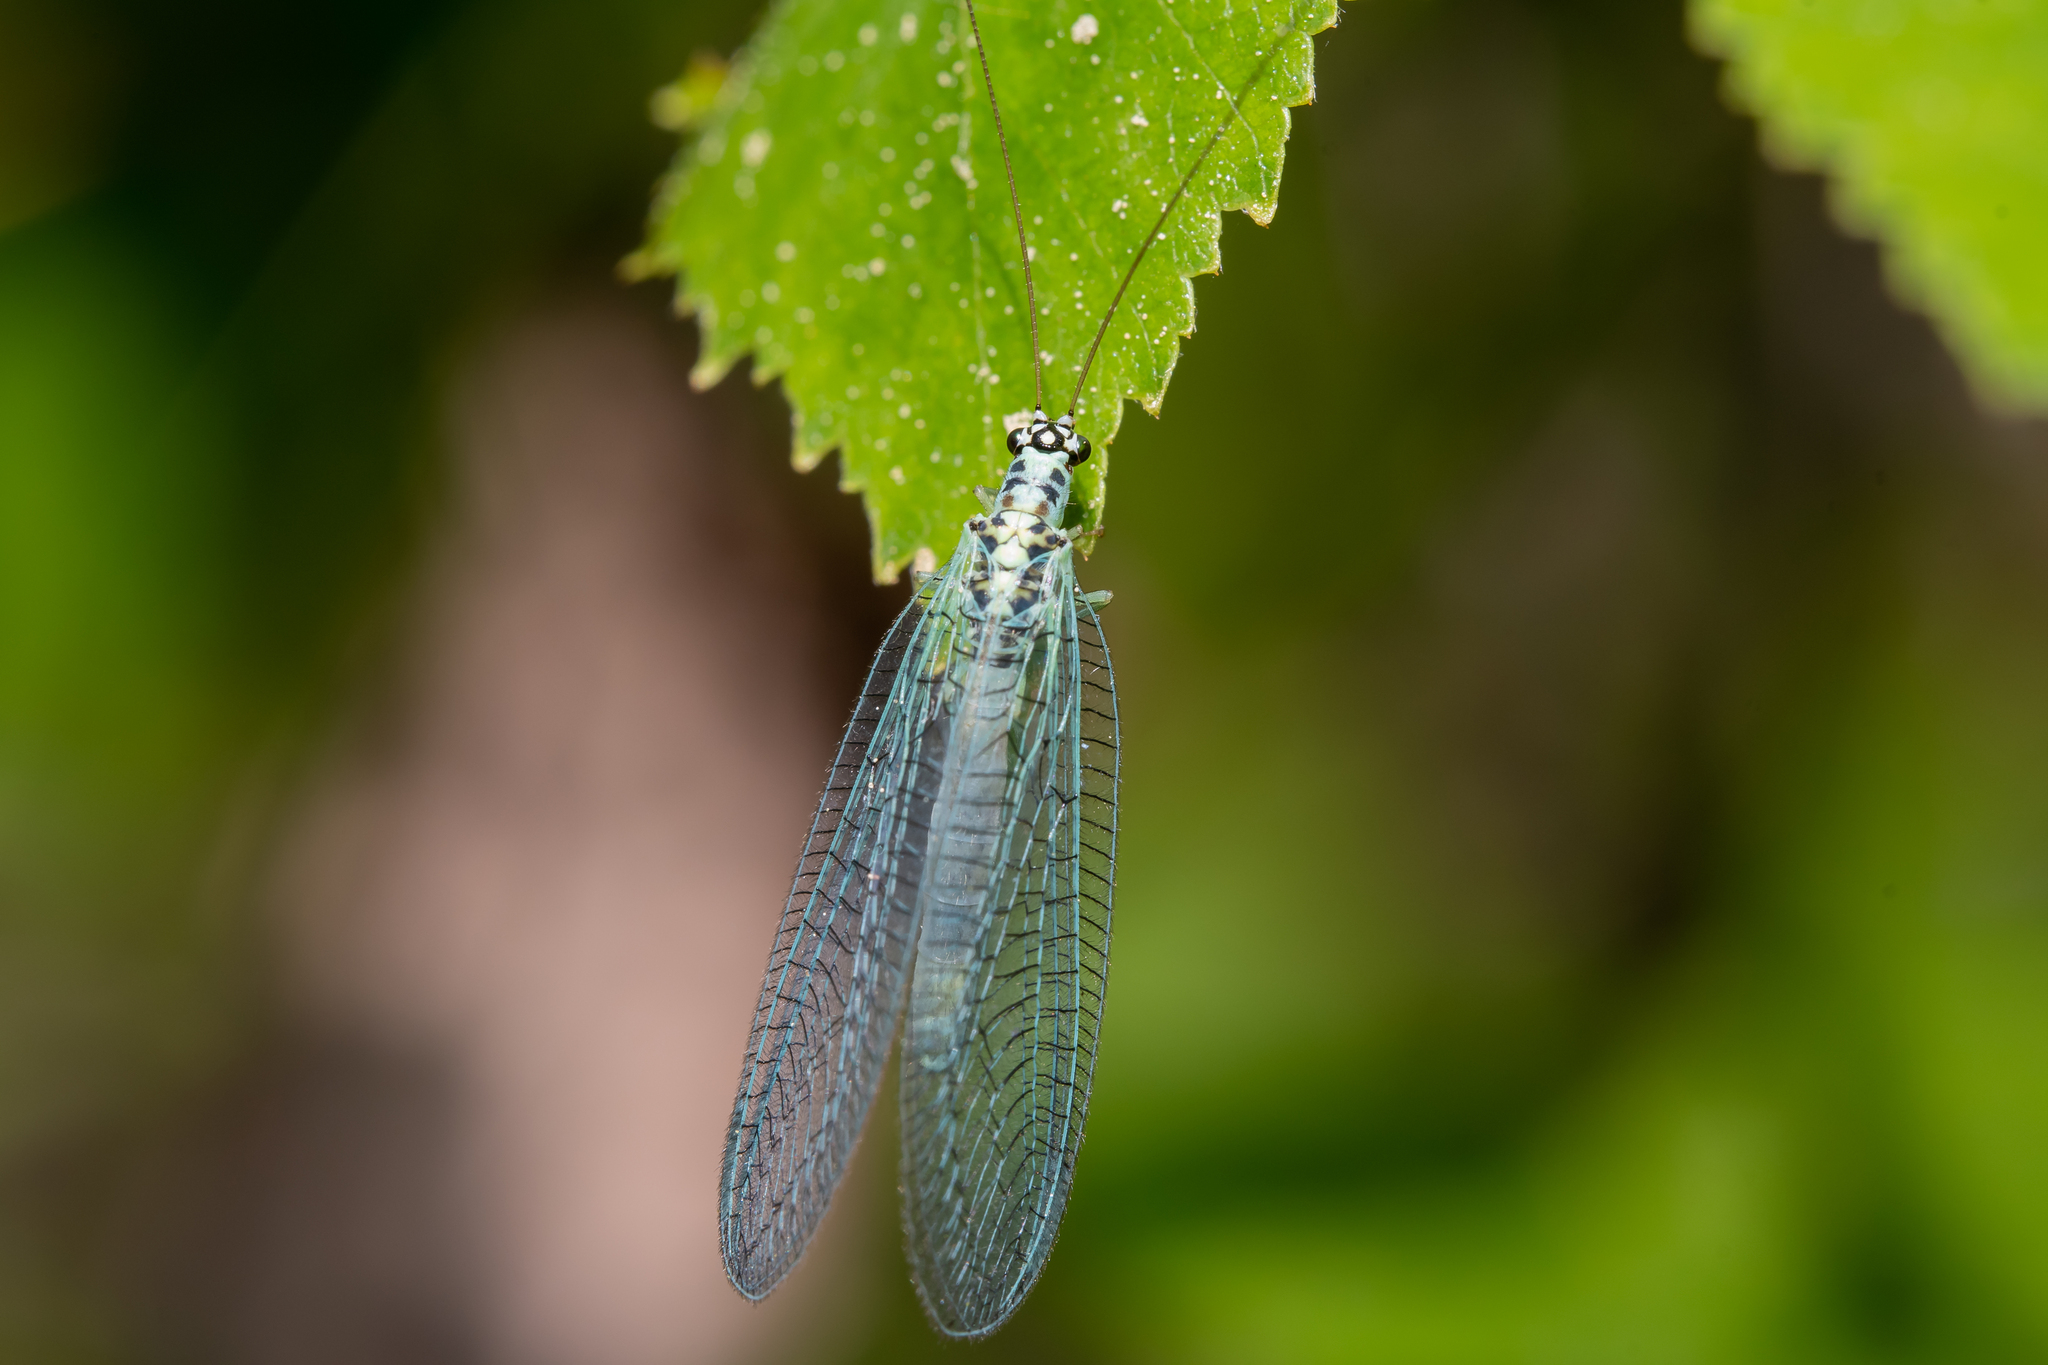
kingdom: Animalia
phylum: Arthropoda
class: Insecta
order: Neuroptera
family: Chrysopidae
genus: Chrysopa
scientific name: Chrysopa perla
